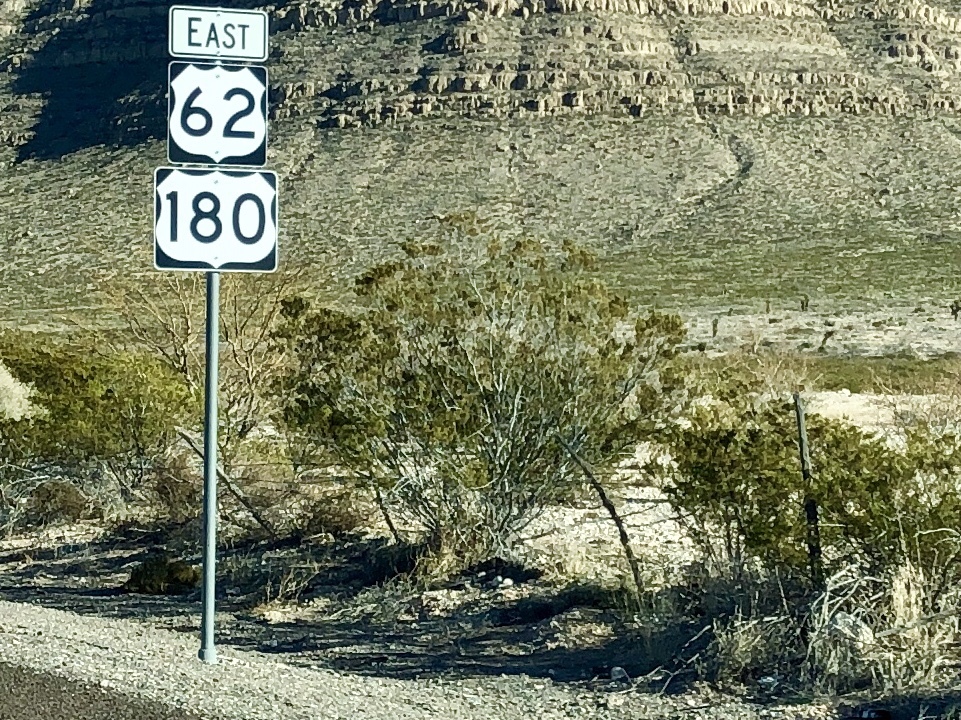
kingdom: Plantae
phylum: Tracheophyta
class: Magnoliopsida
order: Zygophyllales
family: Zygophyllaceae
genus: Larrea
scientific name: Larrea tridentata
